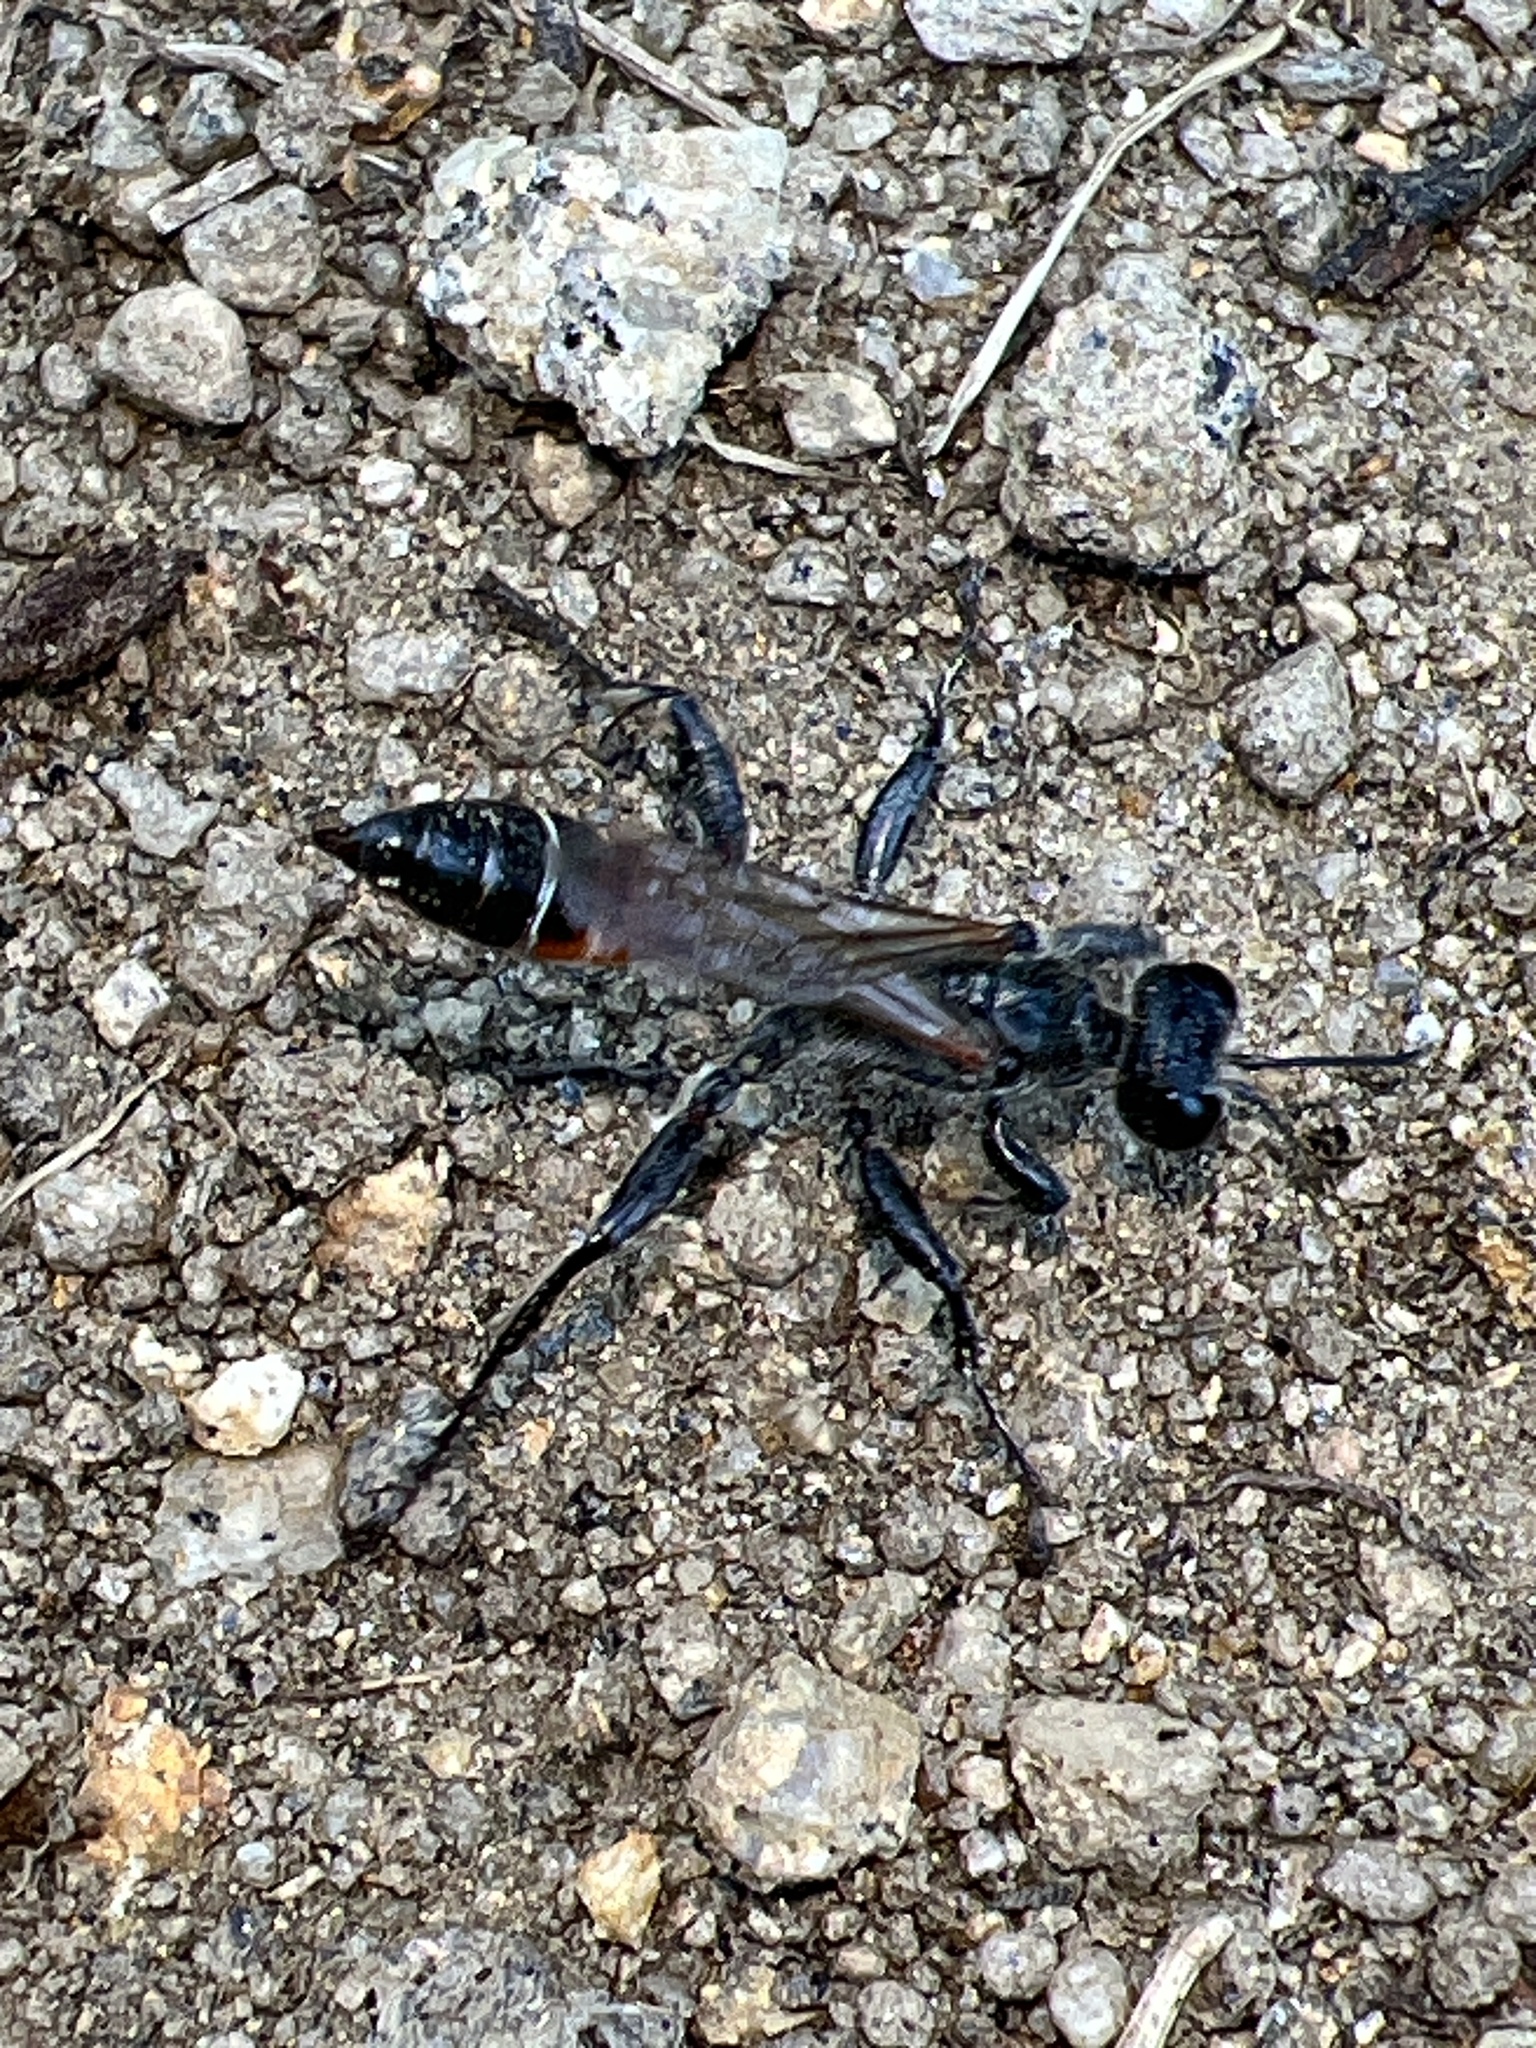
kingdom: Animalia
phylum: Arthropoda
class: Insecta
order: Hymenoptera
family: Sphecidae
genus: Prionyx
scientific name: Prionyx kirbii
